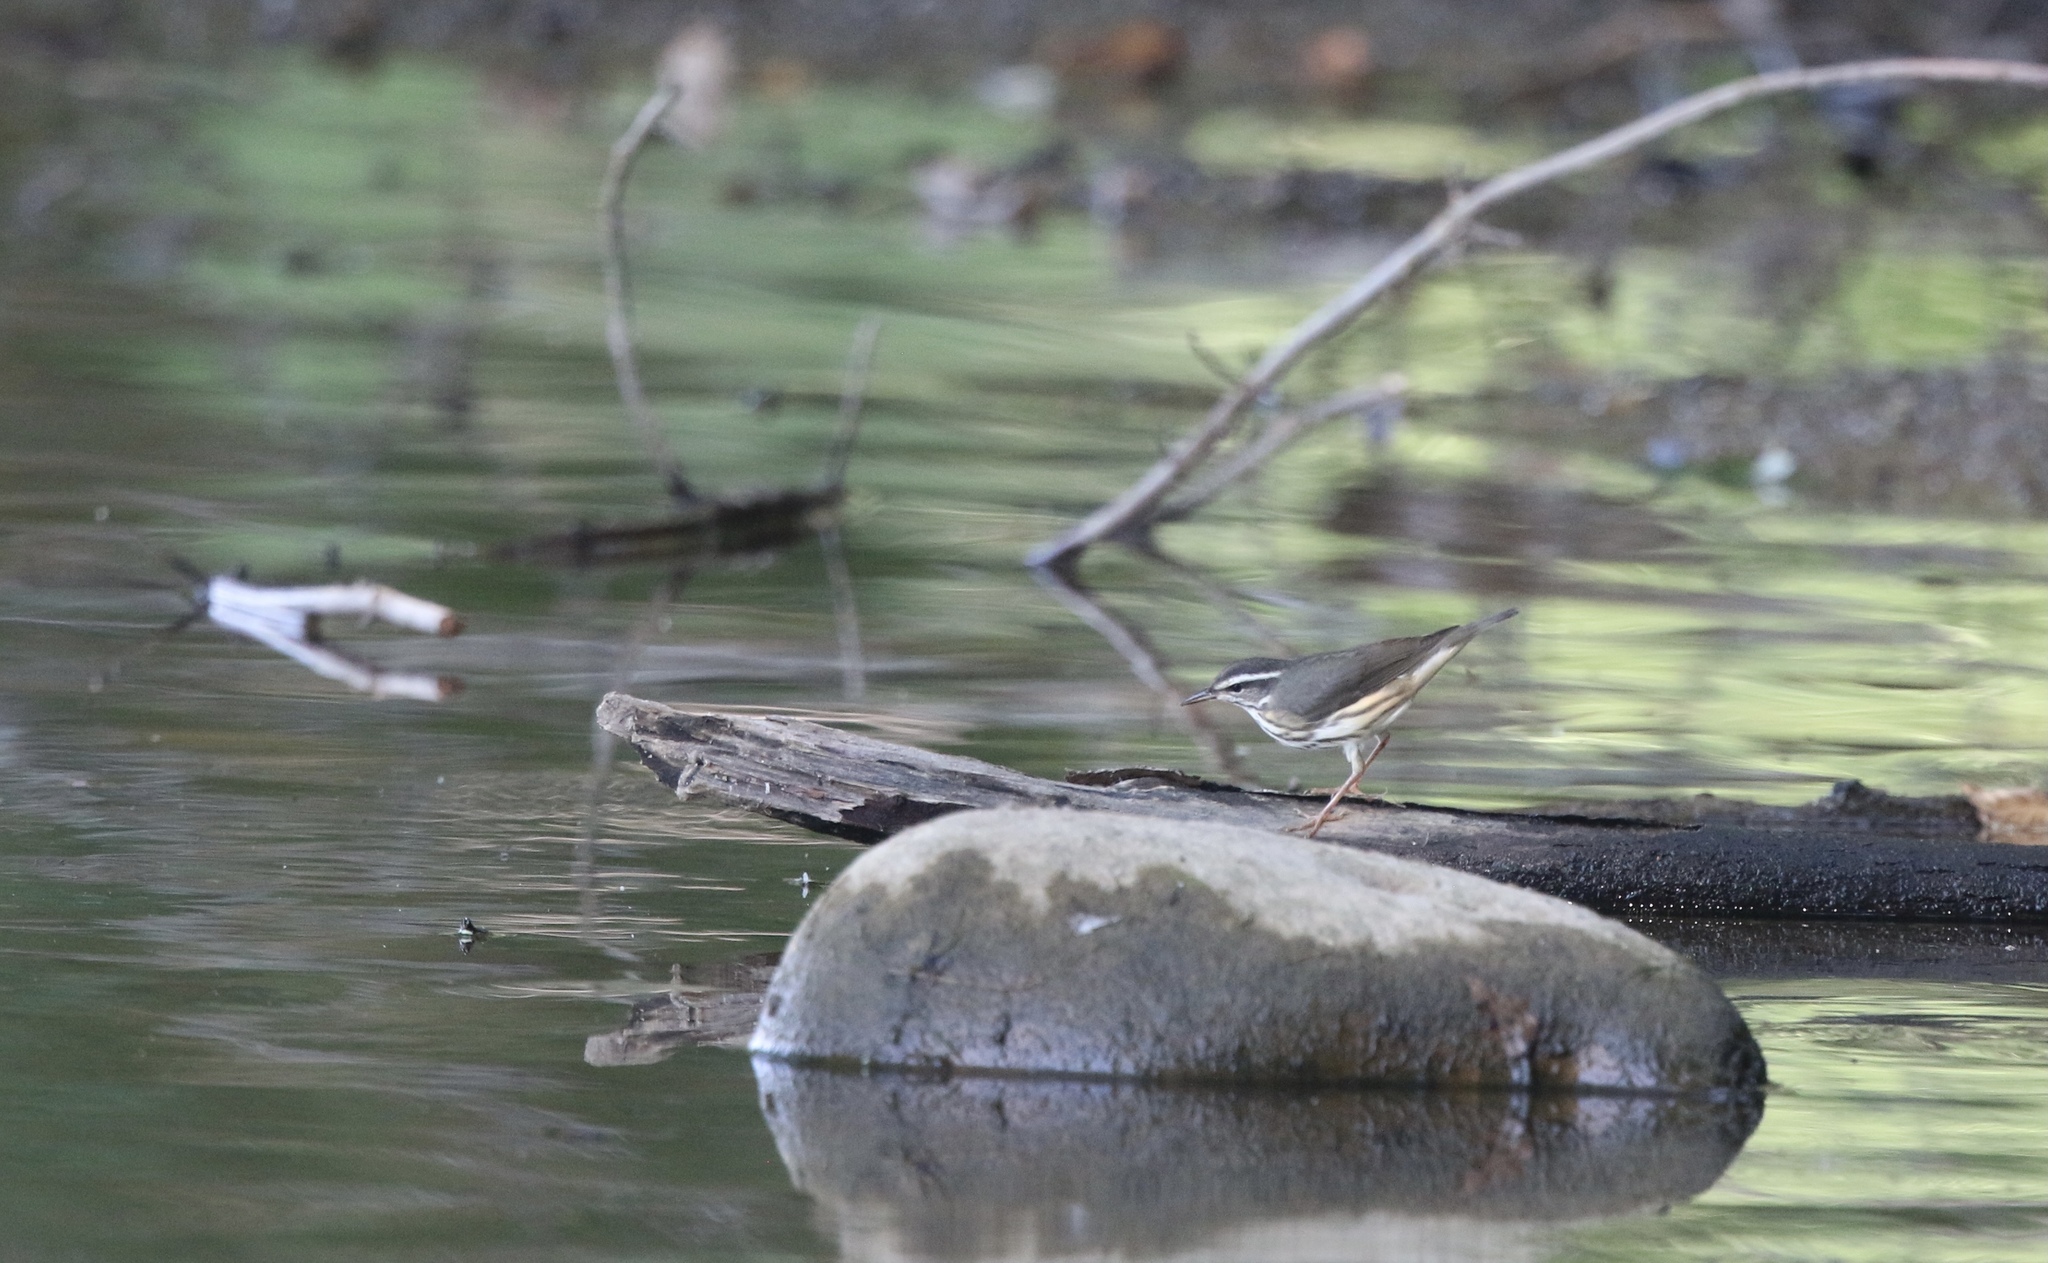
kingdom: Animalia
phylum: Chordata
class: Aves
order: Passeriformes
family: Parulidae
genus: Parkesia
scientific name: Parkesia motacilla
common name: Louisiana waterthrush
